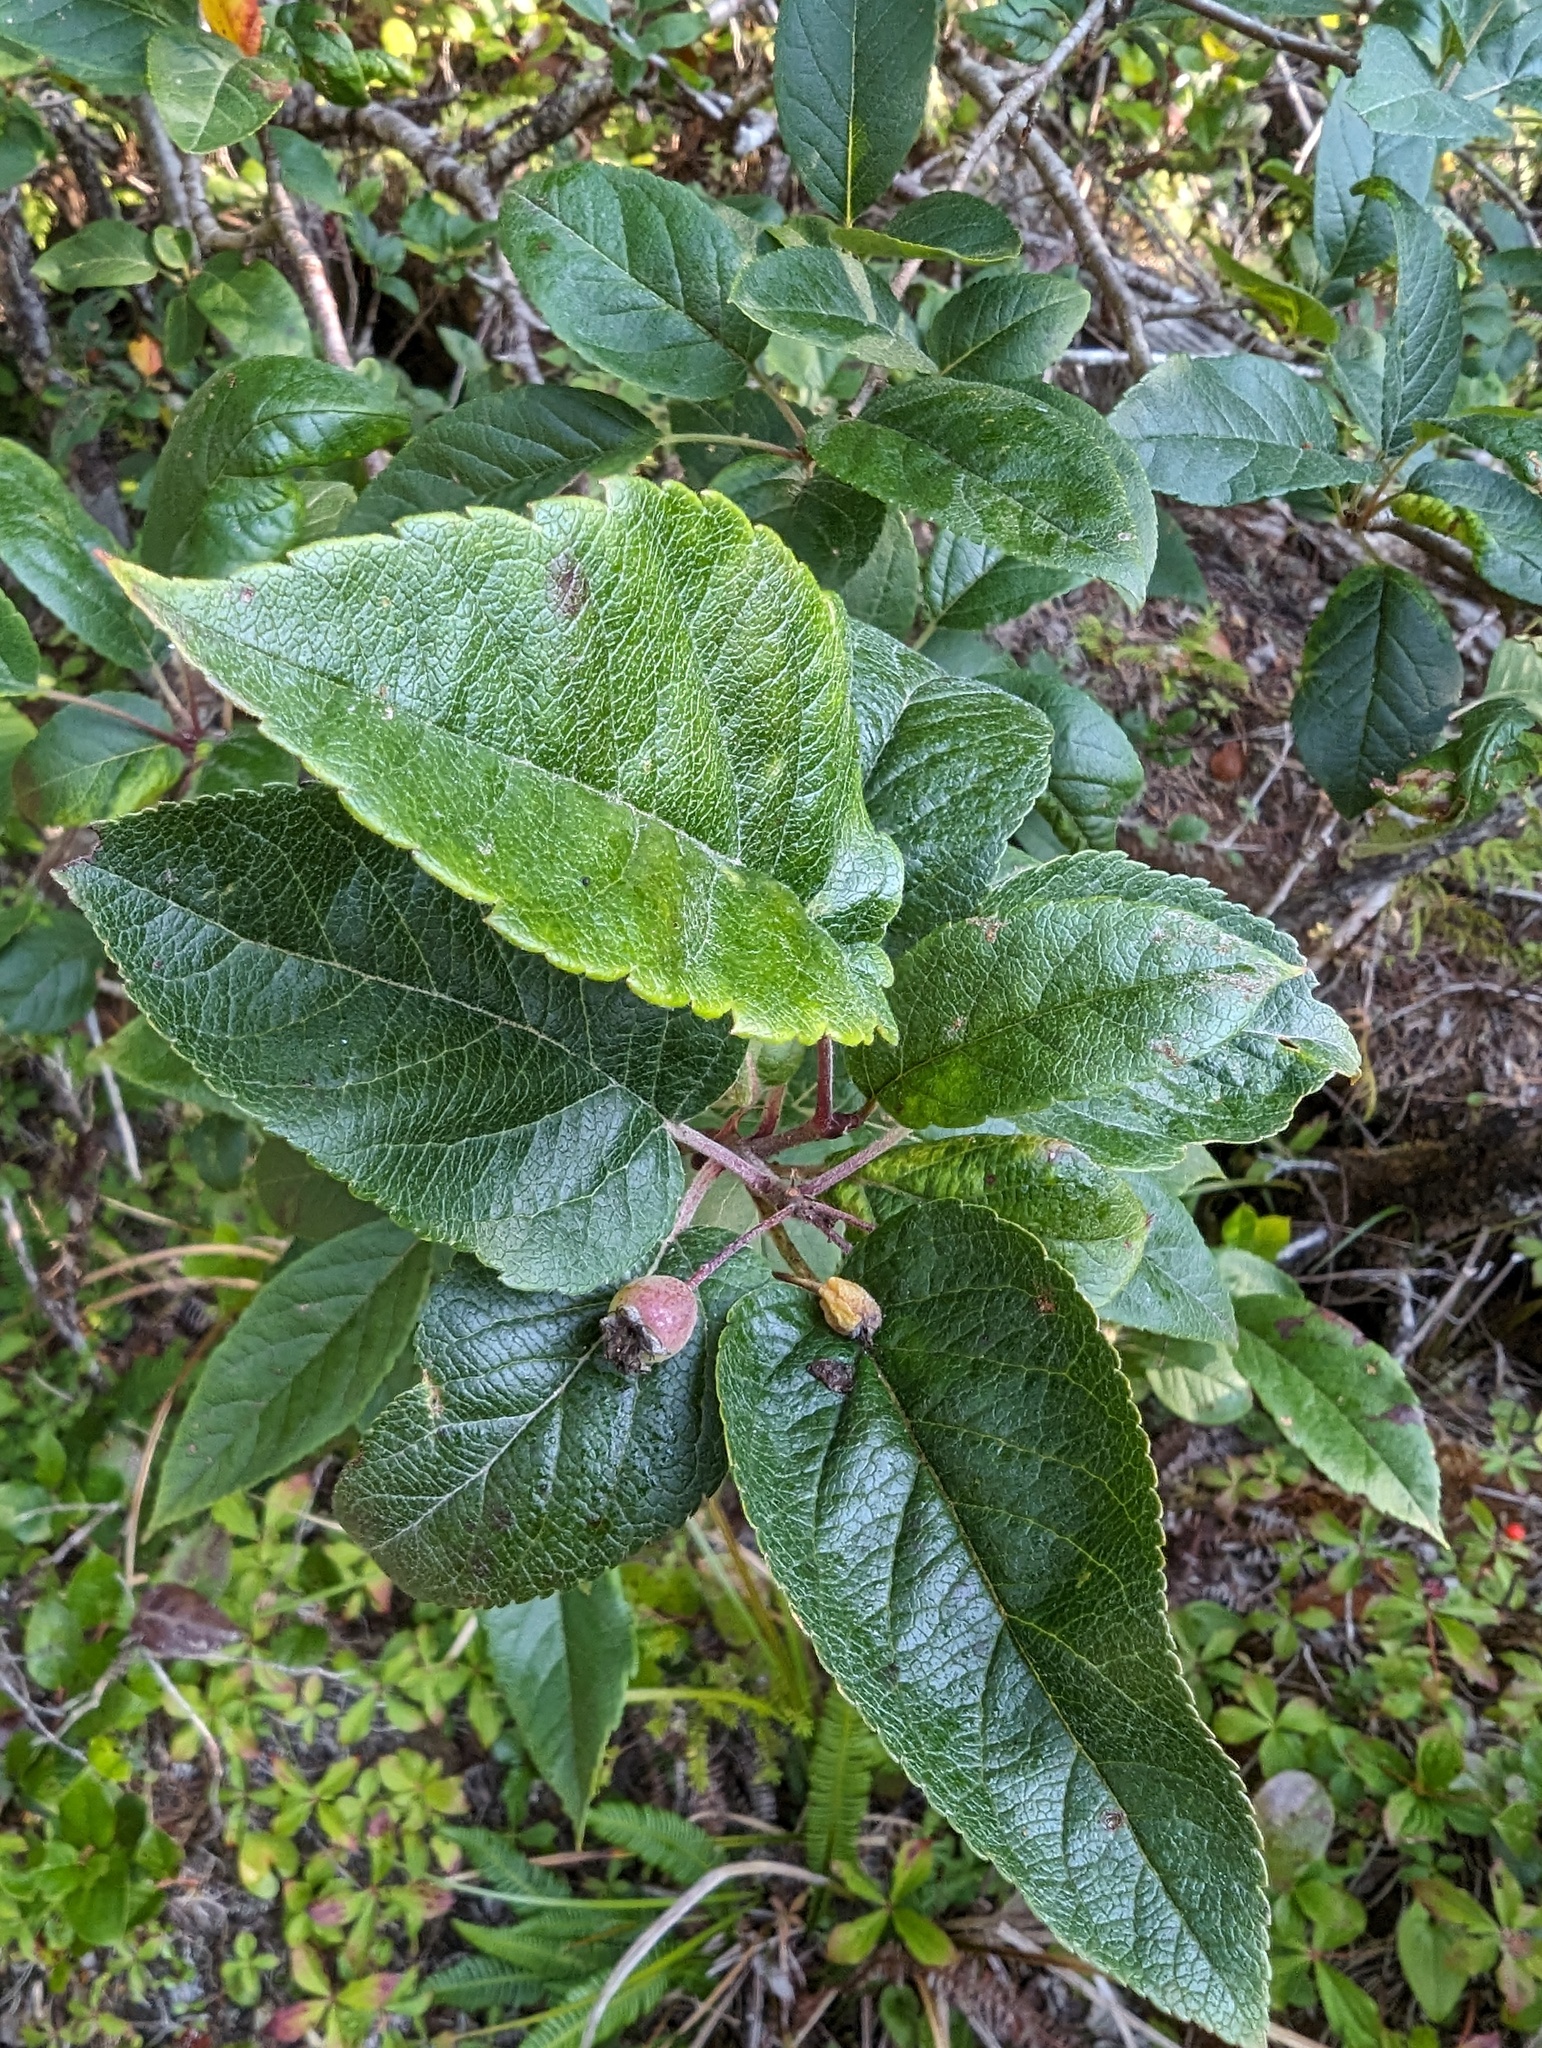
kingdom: Plantae
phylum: Tracheophyta
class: Magnoliopsida
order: Rosales
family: Rosaceae
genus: Malus
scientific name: Malus fusca
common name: Oregon crab apple
